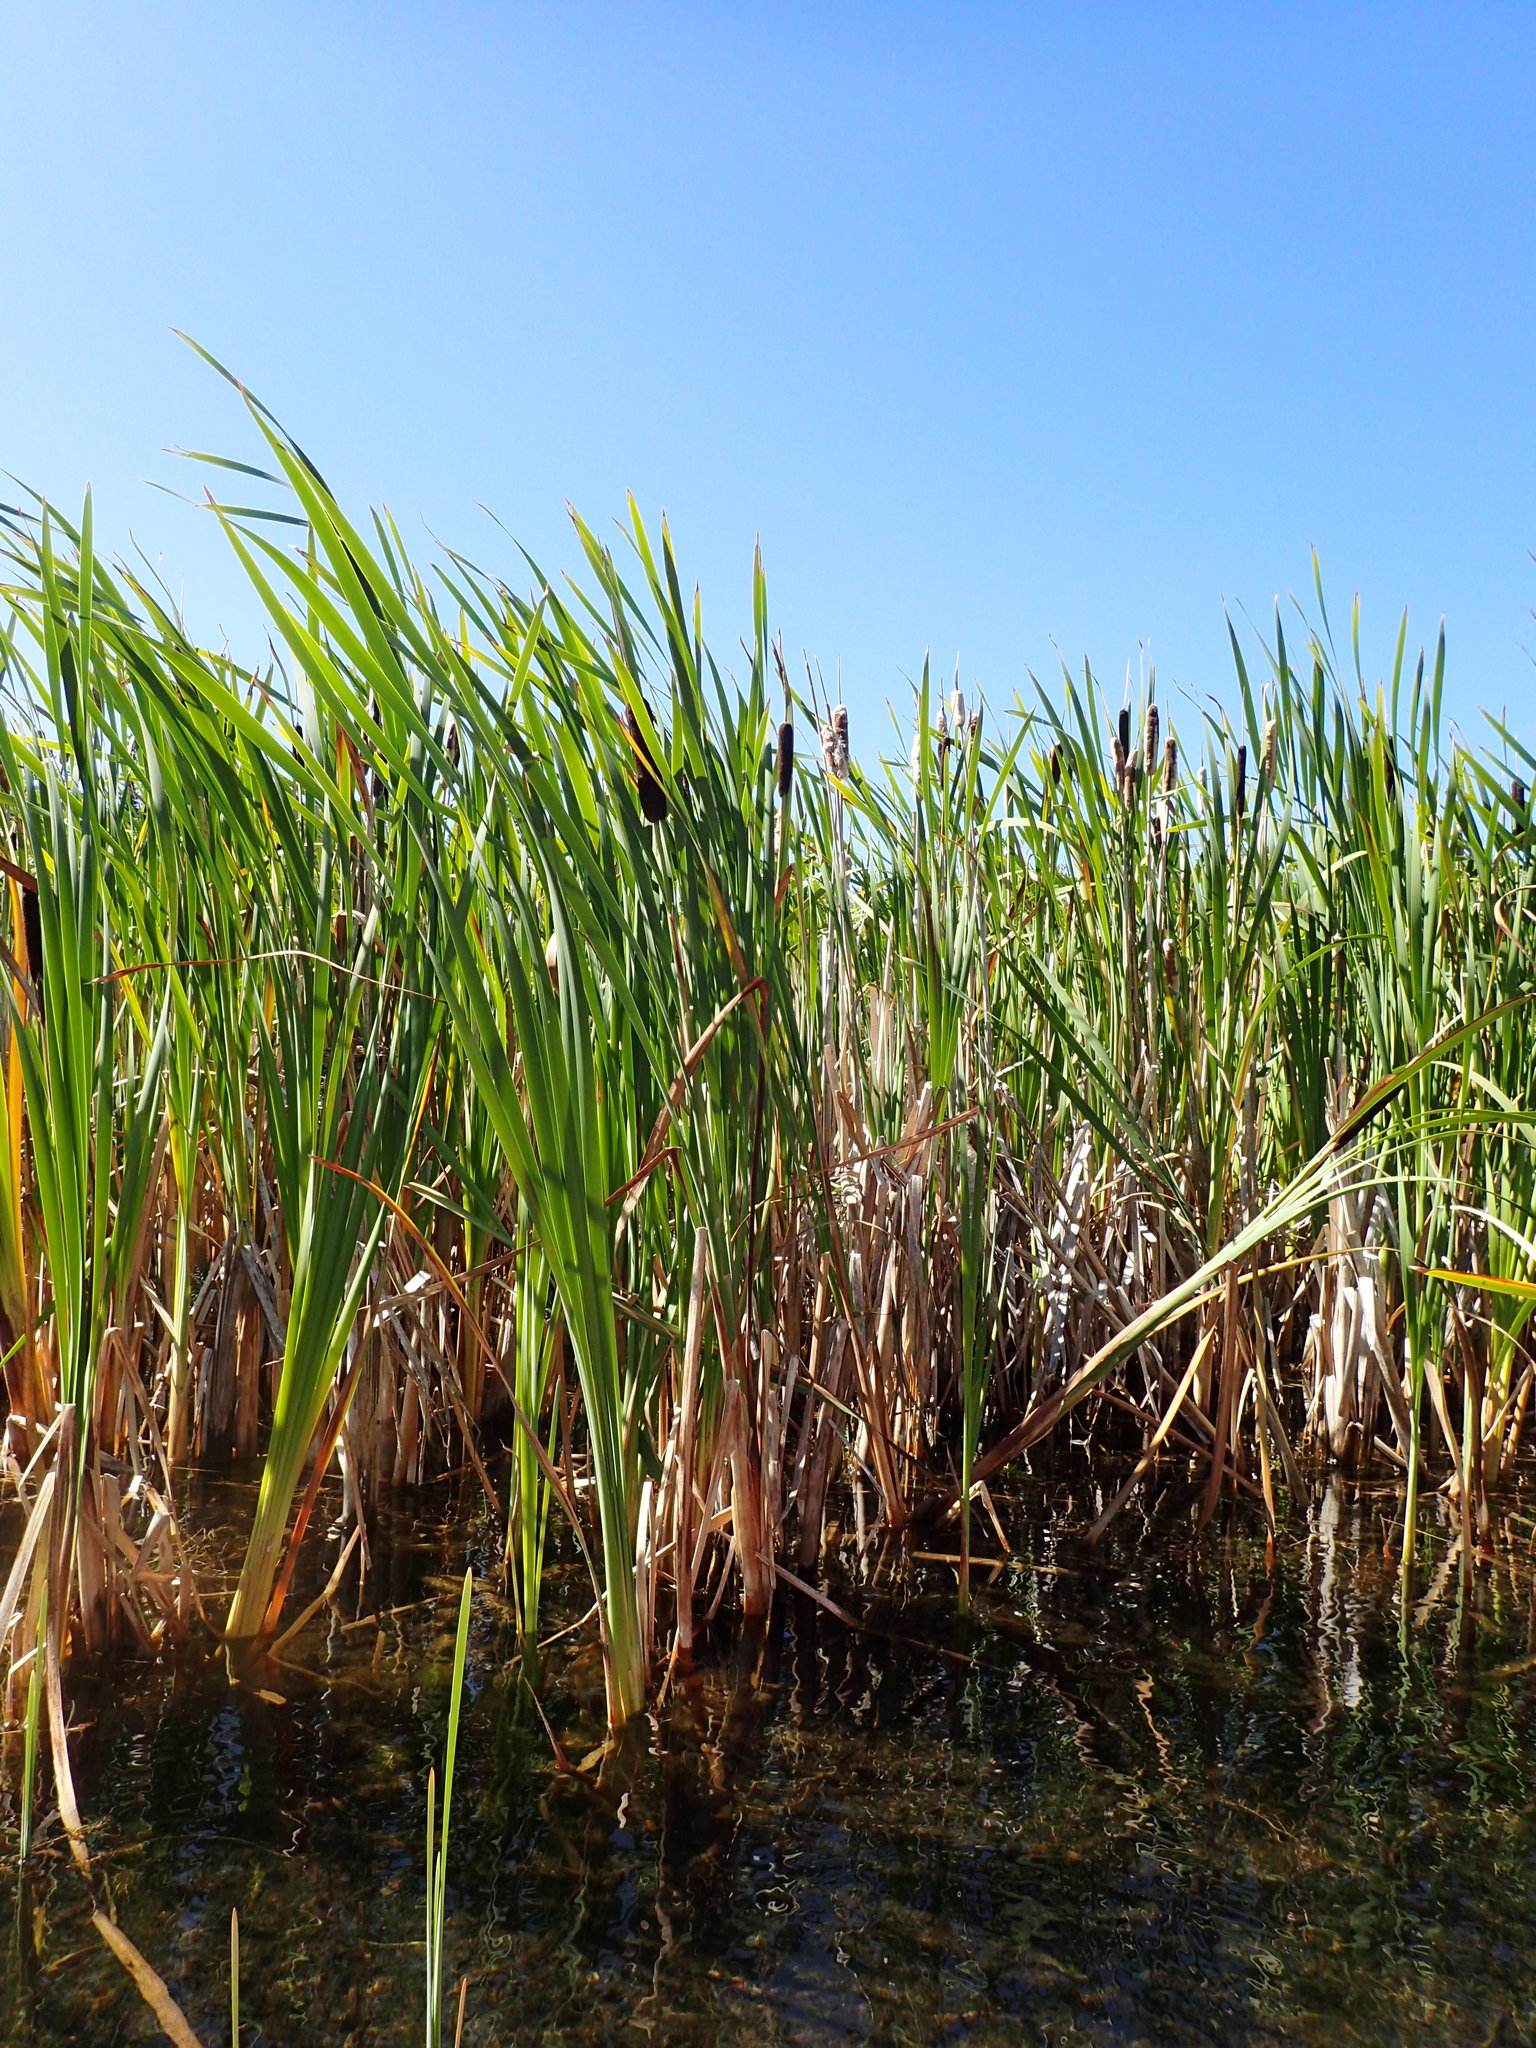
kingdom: Plantae
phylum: Tracheophyta
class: Liliopsida
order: Poales
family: Typhaceae
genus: Typha
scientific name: Typha latifolia
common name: Broadleaf cattail
